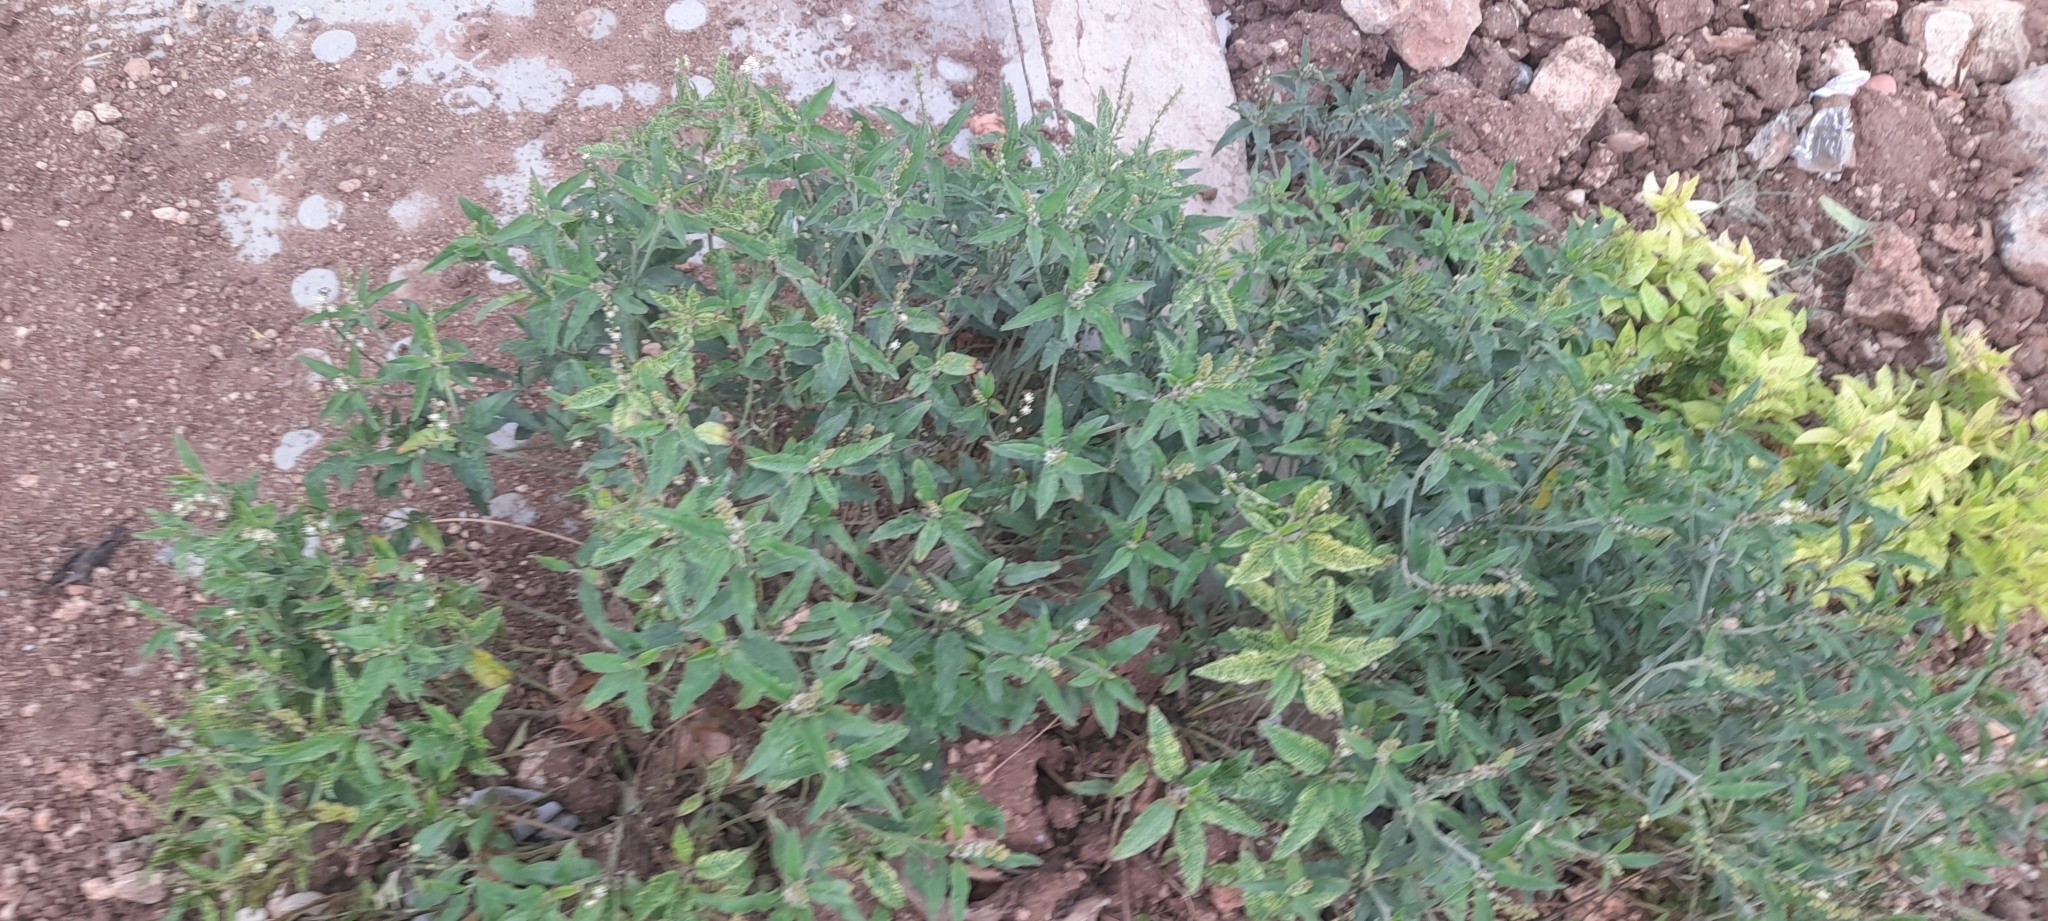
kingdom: Plantae
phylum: Tracheophyta
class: Magnoliopsida
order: Malpighiales
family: Euphorbiaceae
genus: Croton
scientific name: Croton bonplandianus
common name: Bonpland's croton
